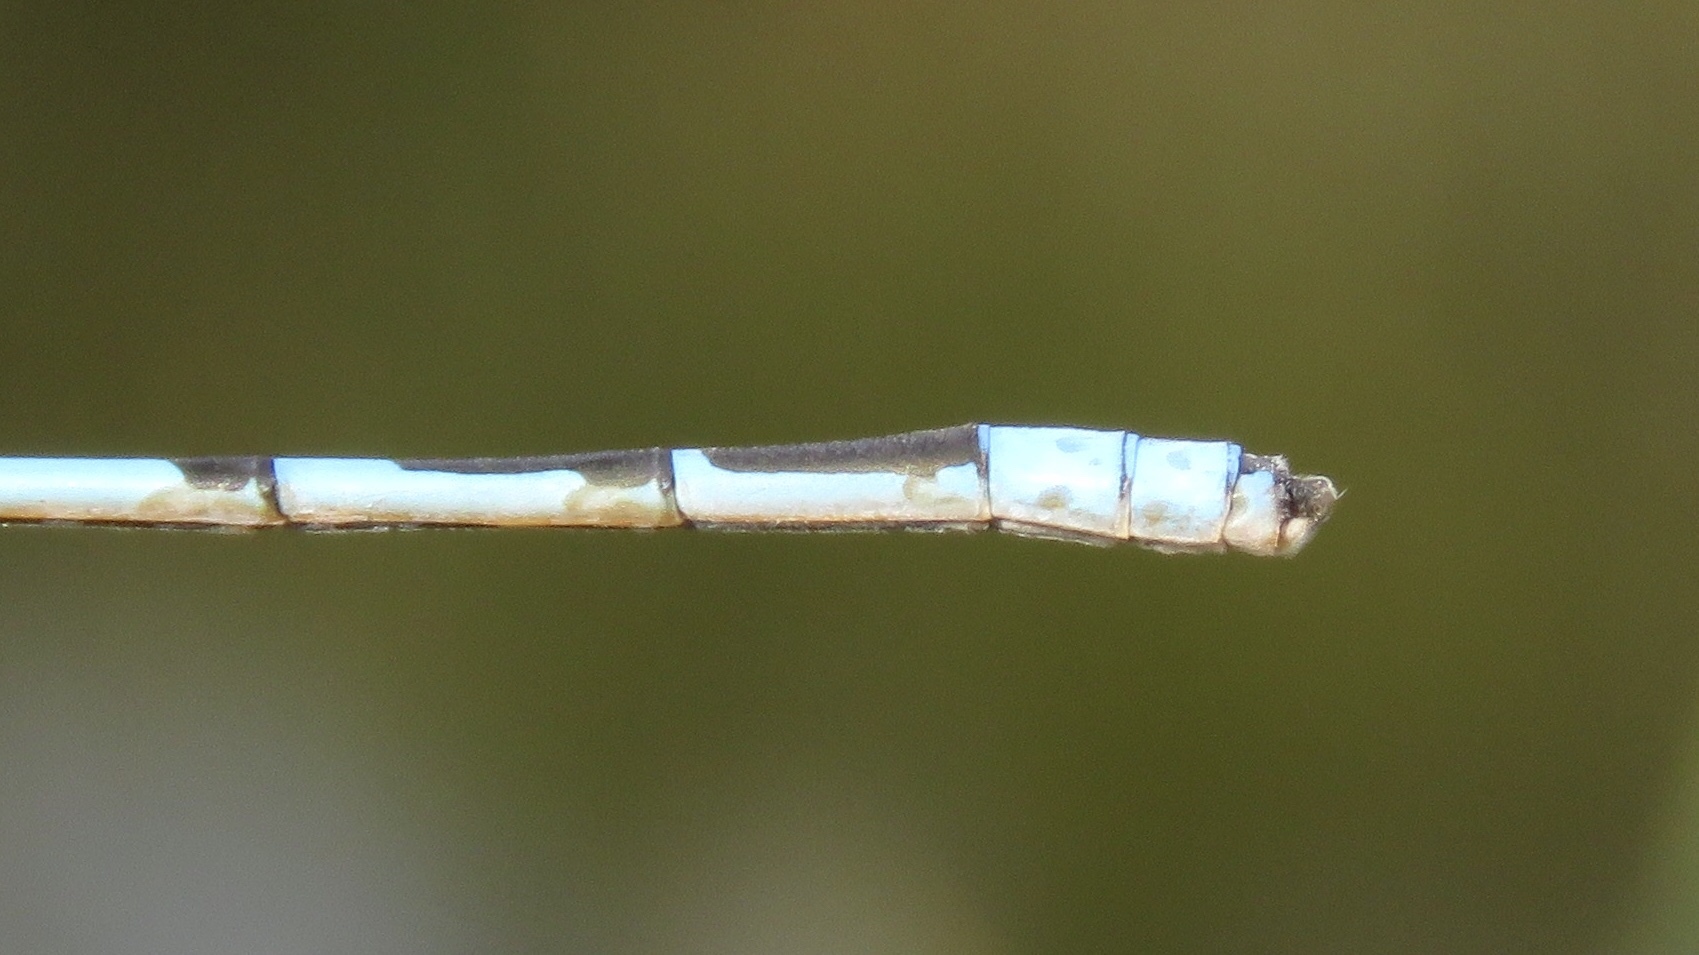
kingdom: Animalia
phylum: Arthropoda
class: Insecta
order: Odonata
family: Coenagrionidae
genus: Enallagma
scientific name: Enallagma civile
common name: Damselfly
